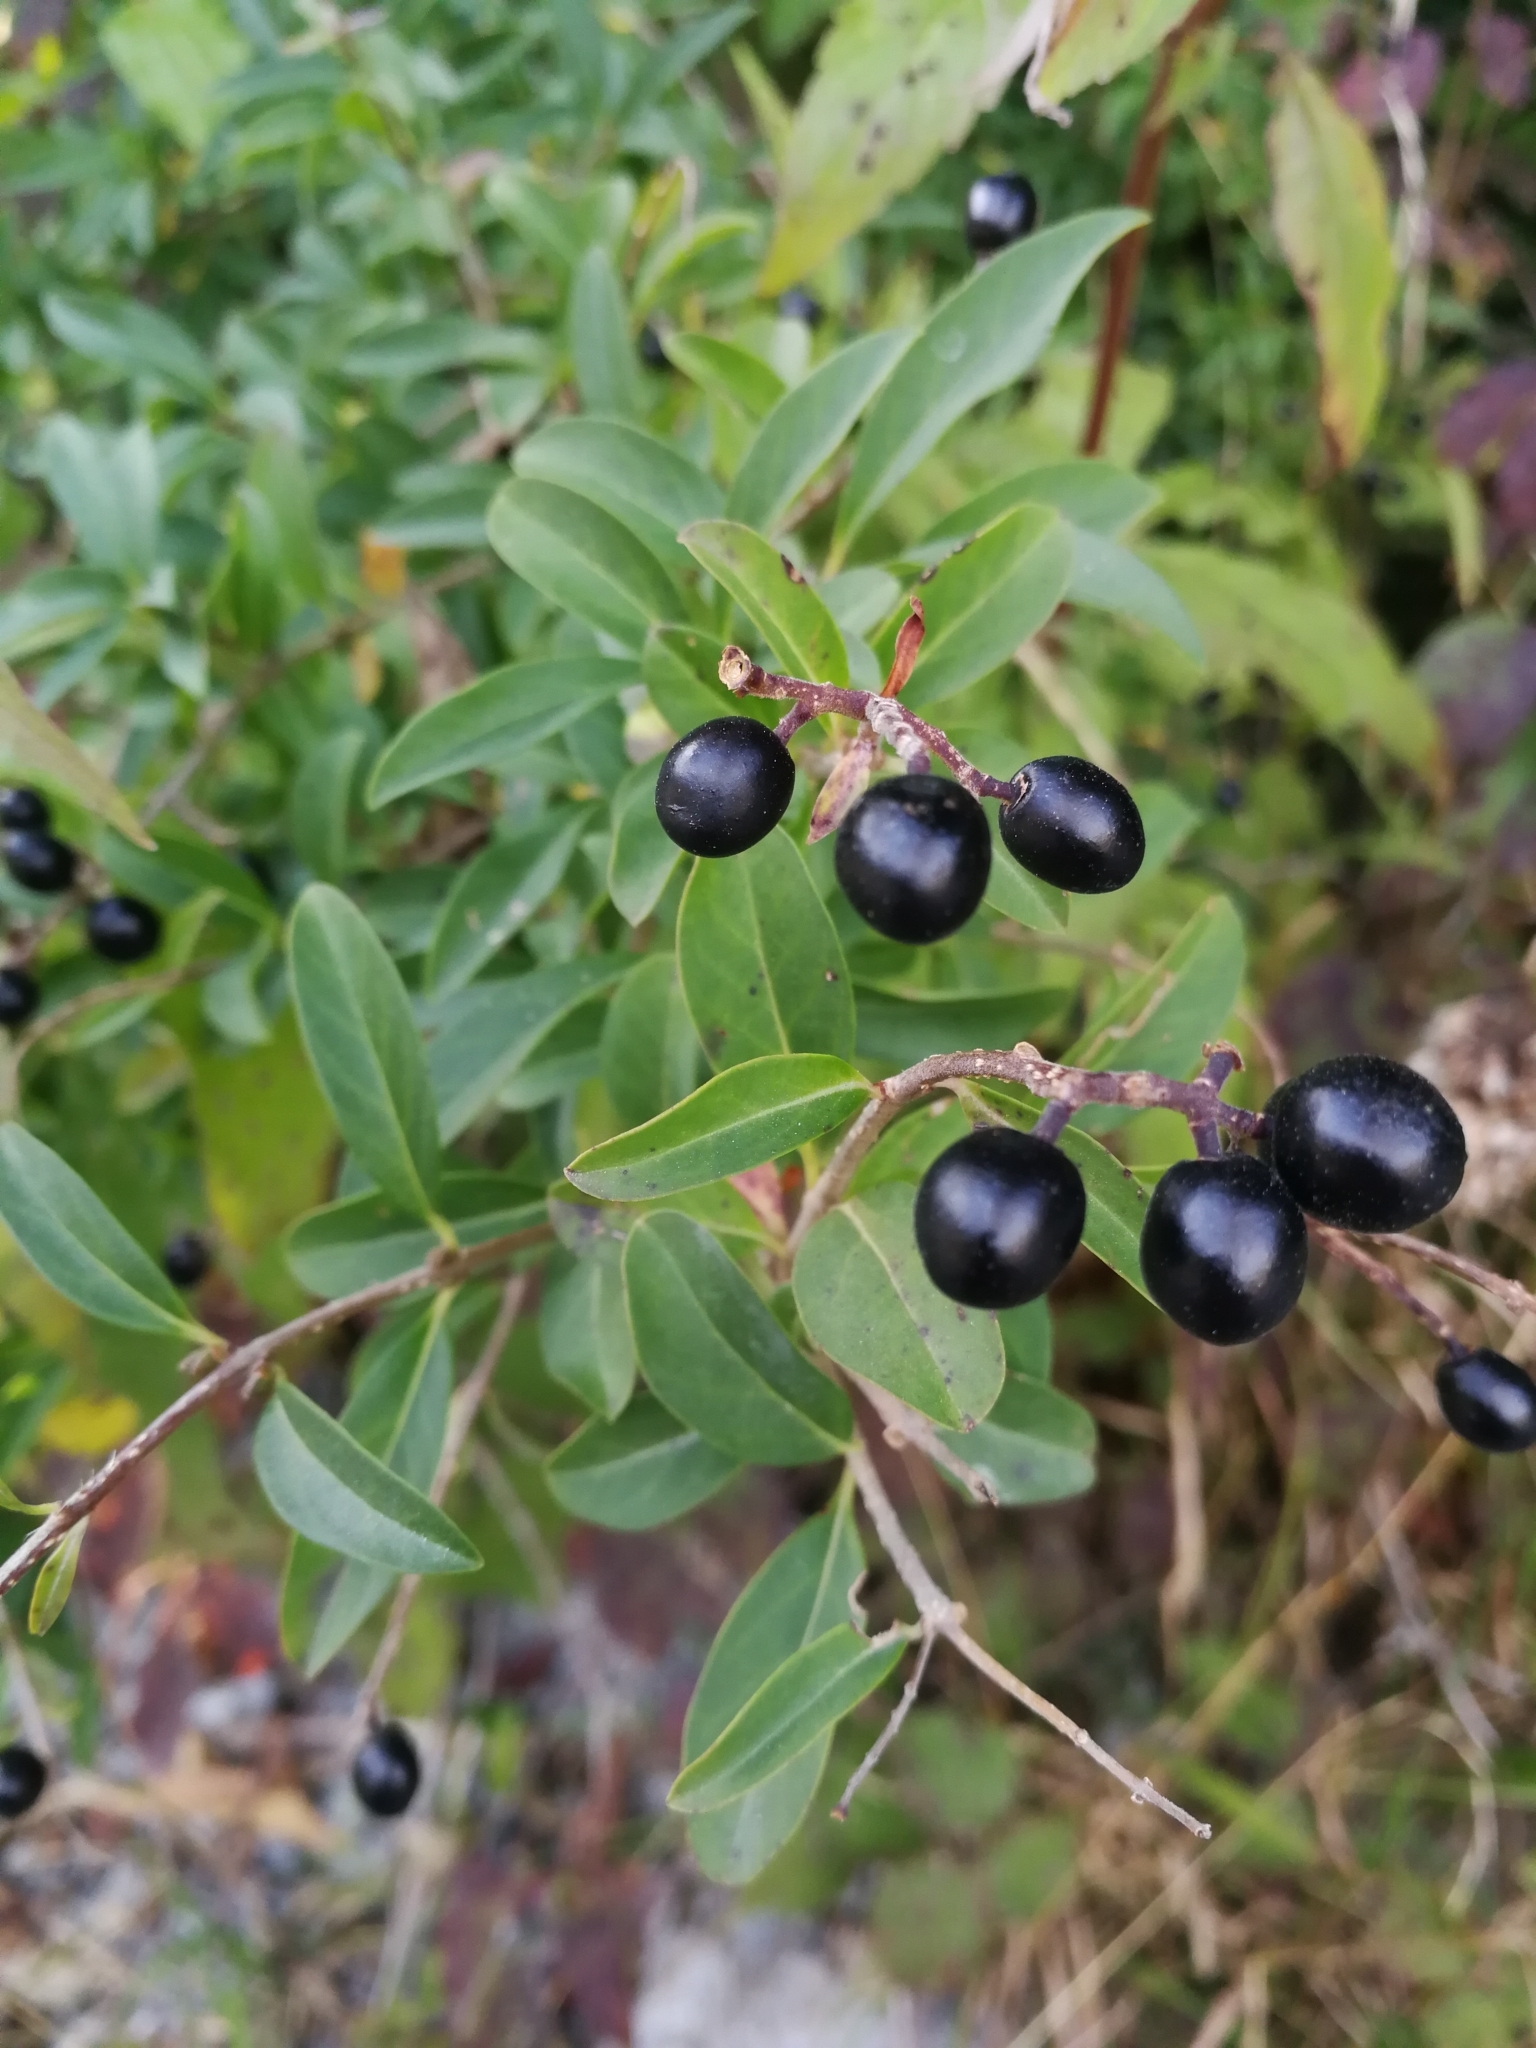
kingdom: Plantae
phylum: Tracheophyta
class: Magnoliopsida
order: Lamiales
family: Oleaceae
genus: Ligustrum
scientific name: Ligustrum vulgare
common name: Wild privet
